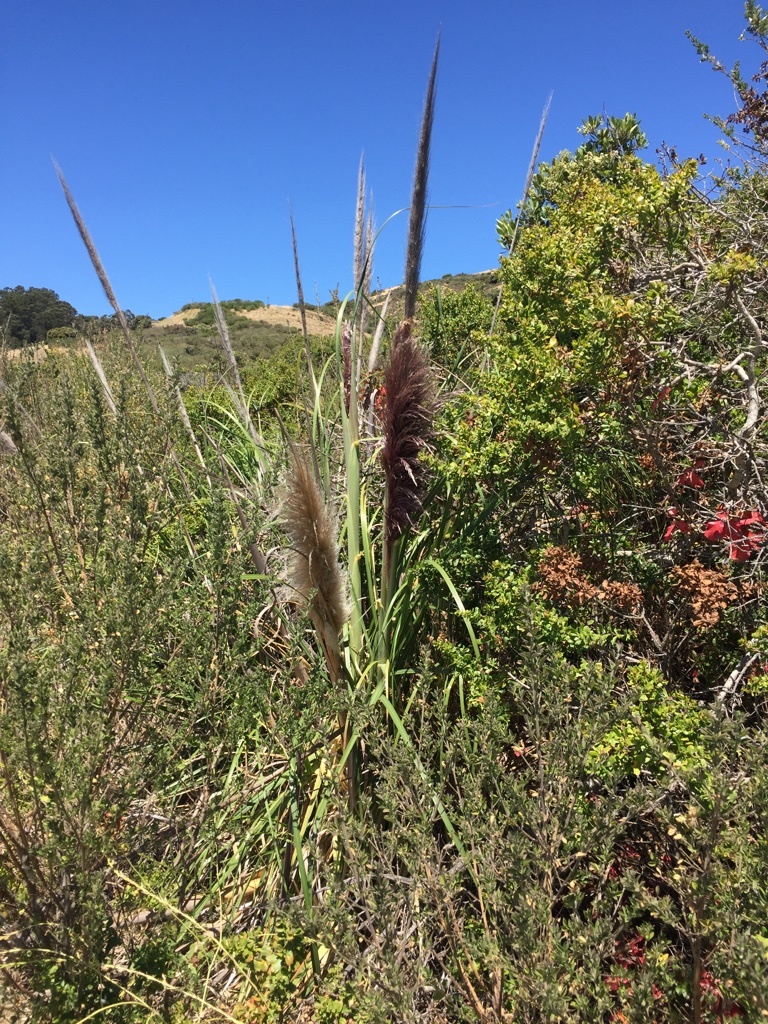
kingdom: Plantae
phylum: Tracheophyta
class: Liliopsida
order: Poales
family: Poaceae
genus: Cortaderia
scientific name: Cortaderia jubata
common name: Purple pampas grass
